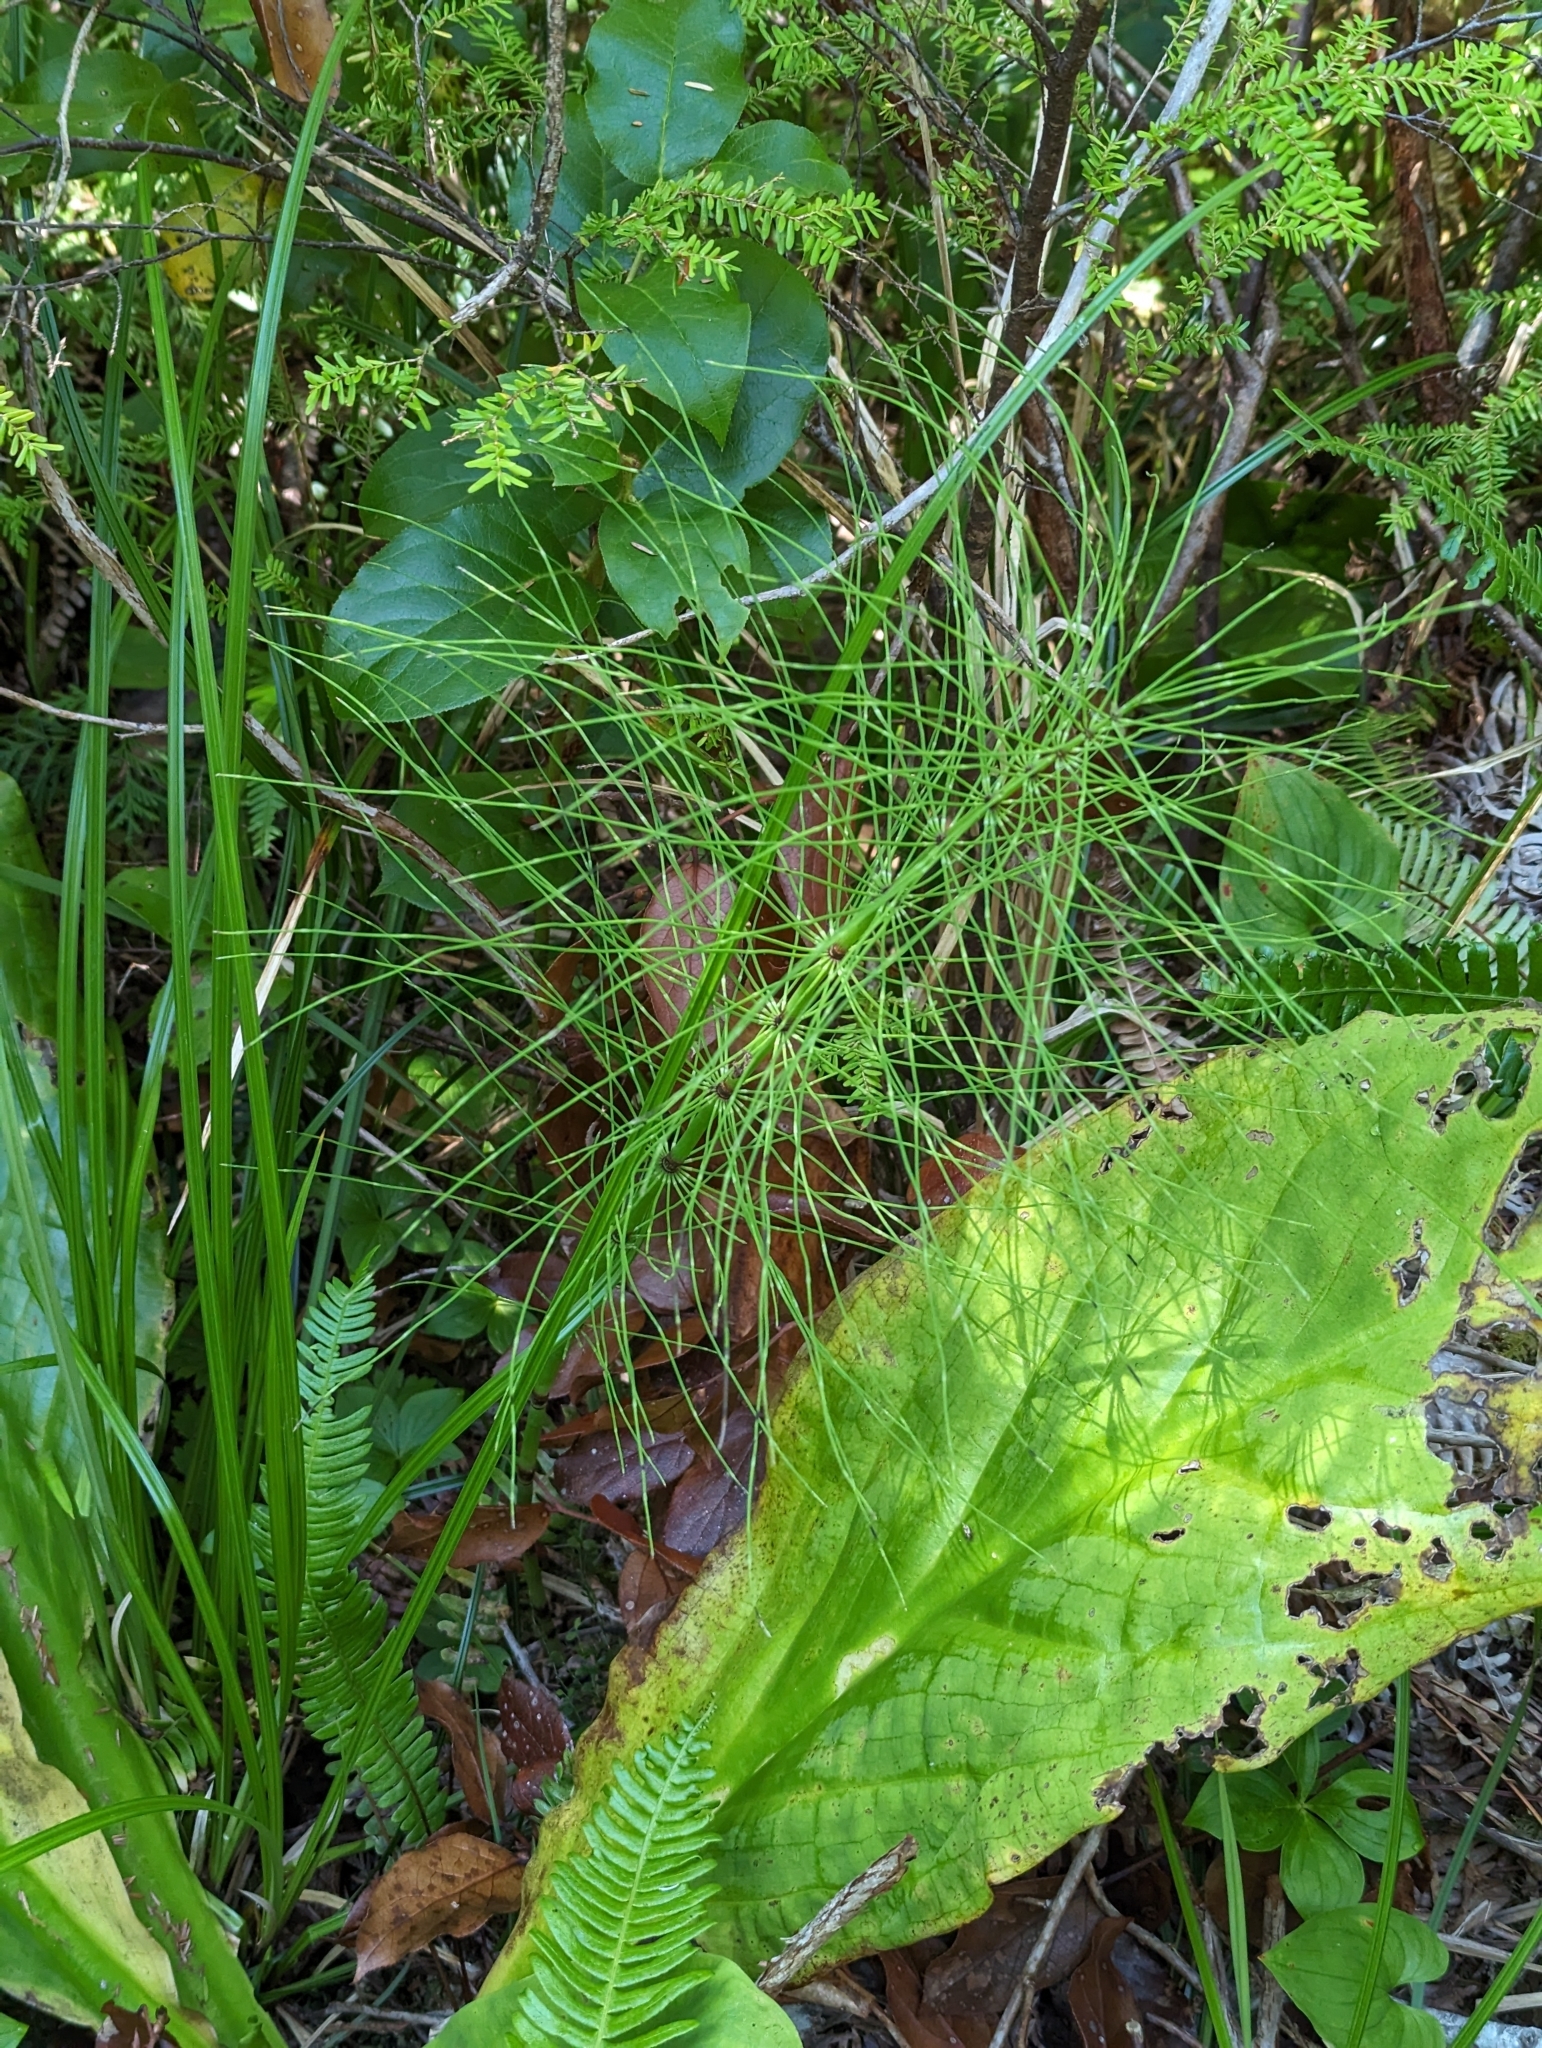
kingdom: Plantae
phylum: Tracheophyta
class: Polypodiopsida
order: Equisetales
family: Equisetaceae
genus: Equisetum
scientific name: Equisetum braunii
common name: Braun's horsetail
